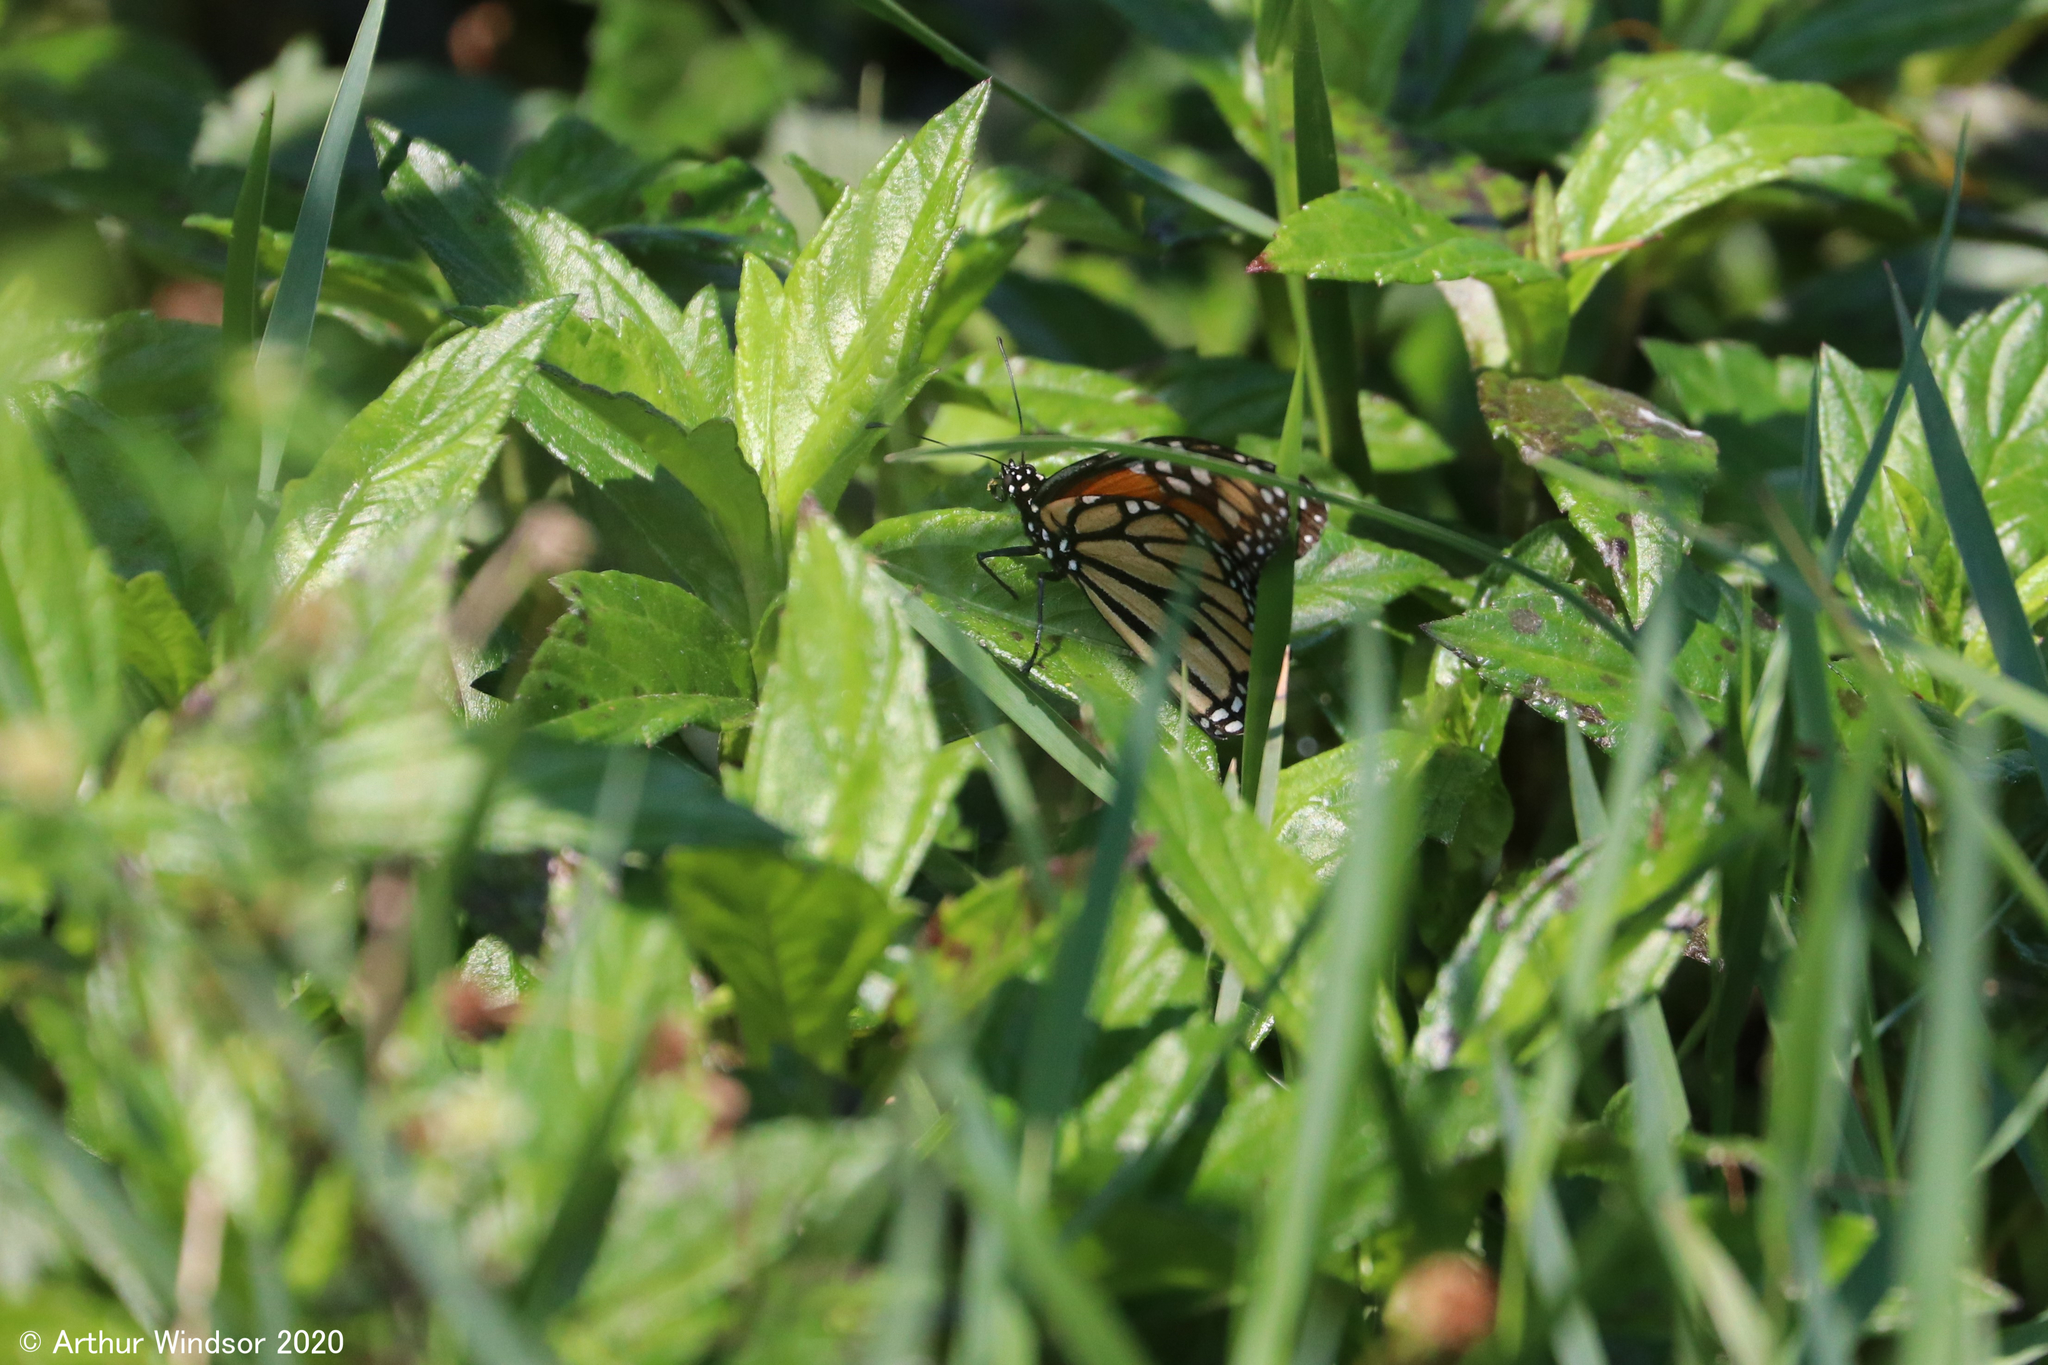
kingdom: Animalia
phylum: Arthropoda
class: Insecta
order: Lepidoptera
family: Nymphalidae
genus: Danaus
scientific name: Danaus plexippus
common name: Monarch
